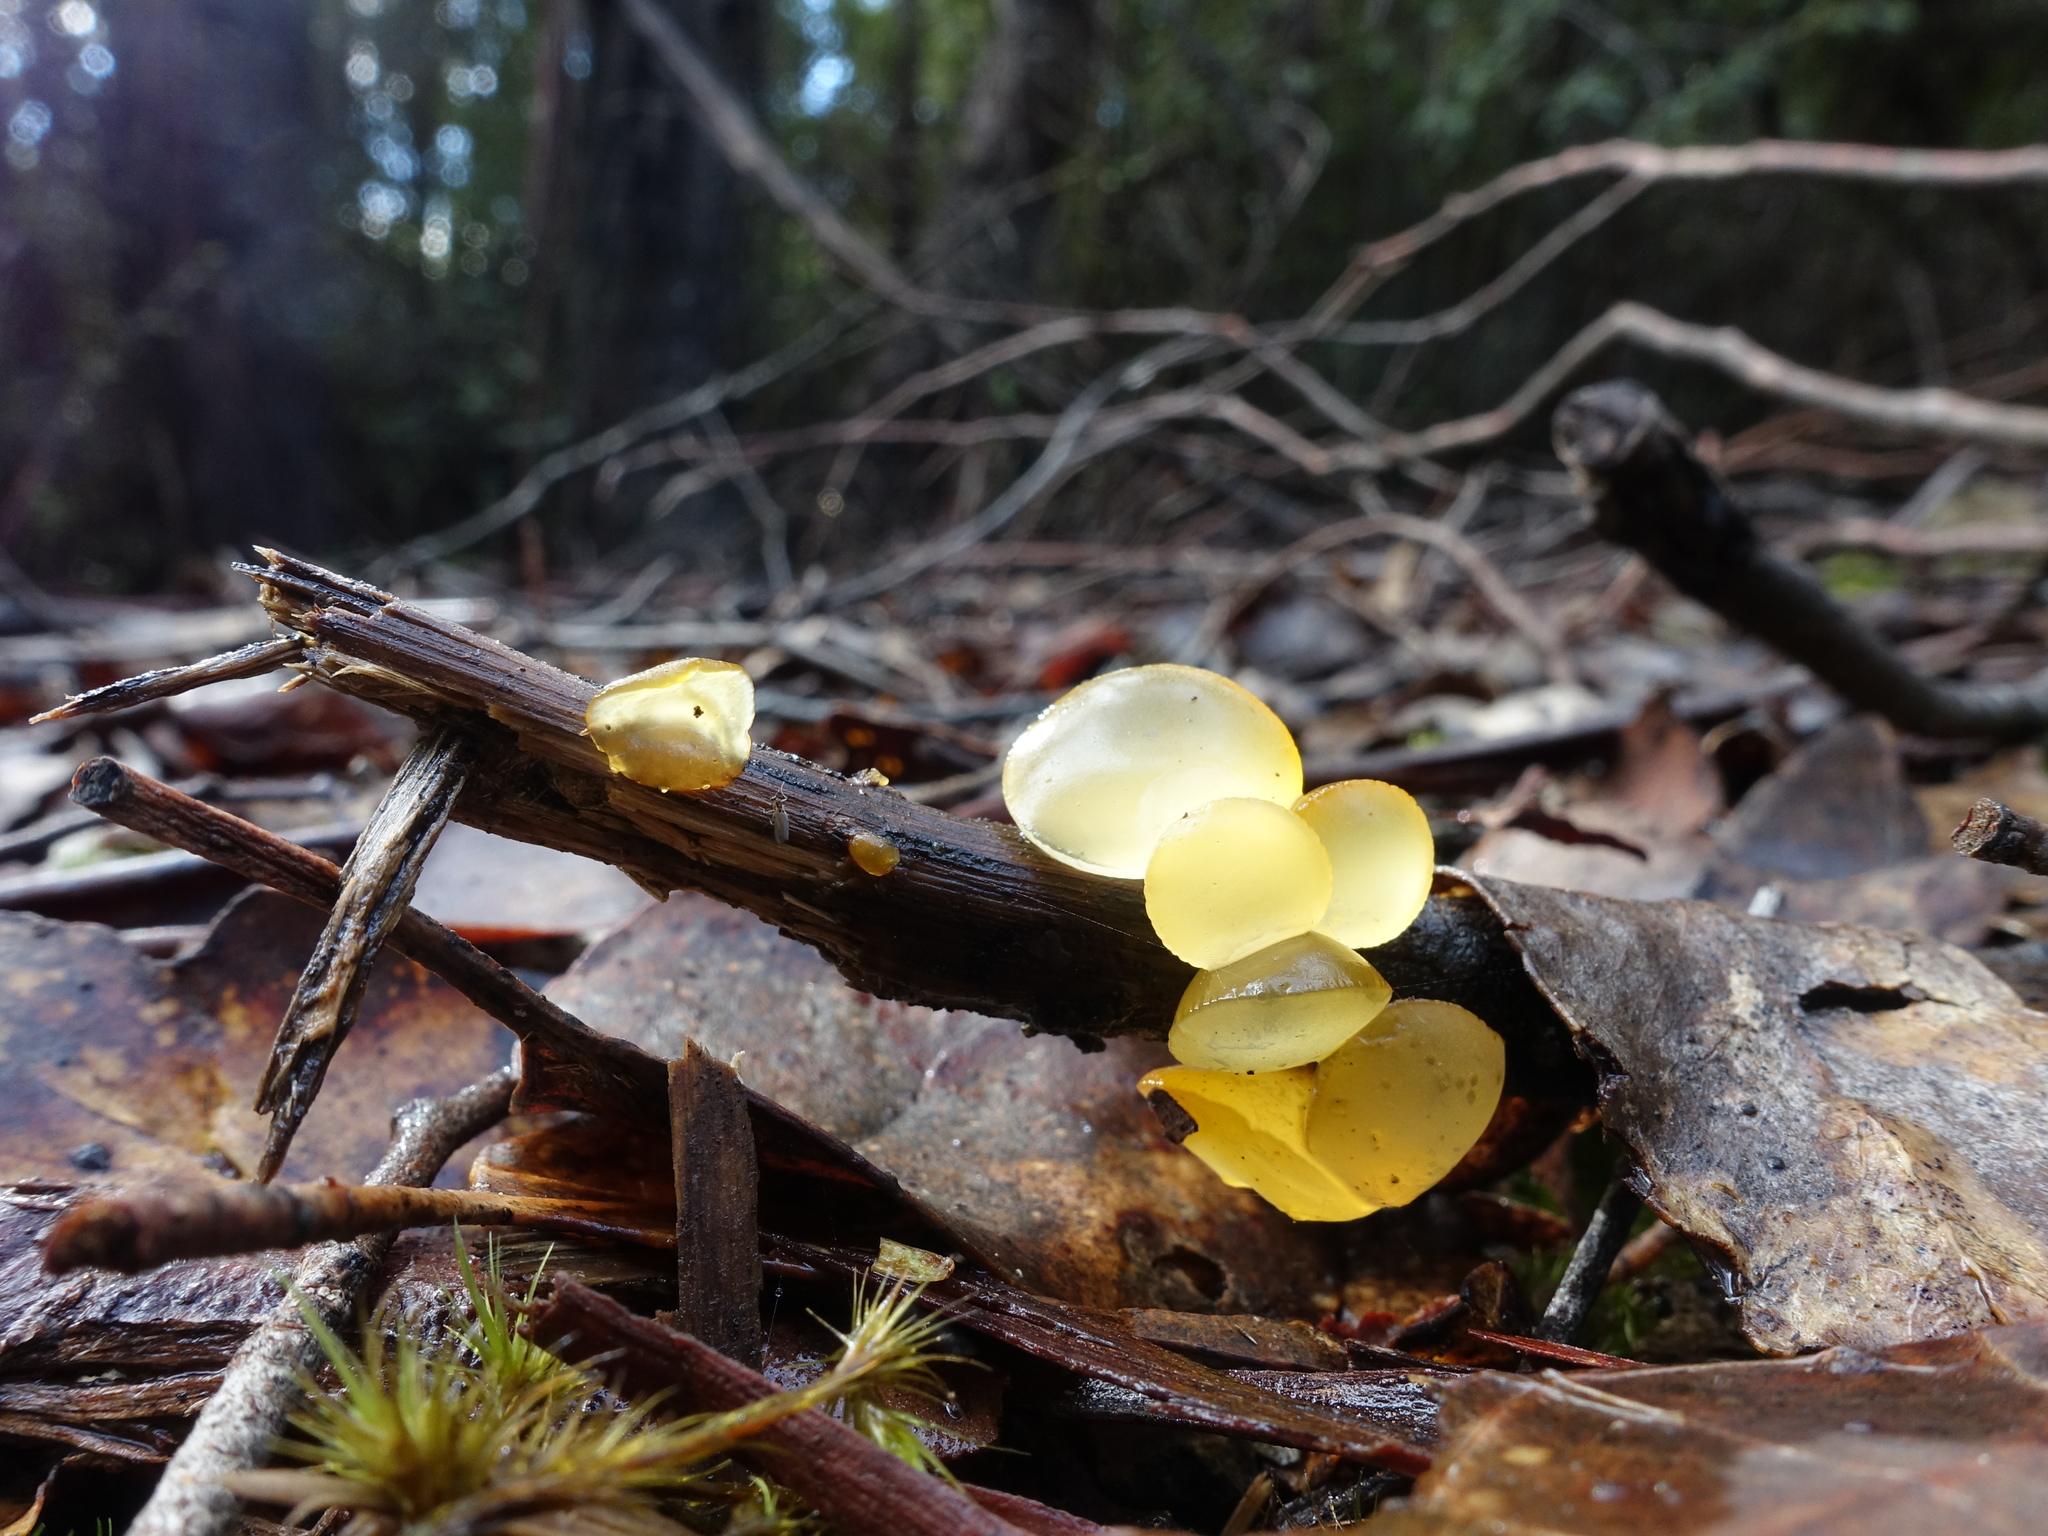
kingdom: Fungi
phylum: Basidiomycota
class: Dacrymycetes
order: Dacrymycetales
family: Dacrymycetaceae
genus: Heterotextus
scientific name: Heterotextus peziziformis
